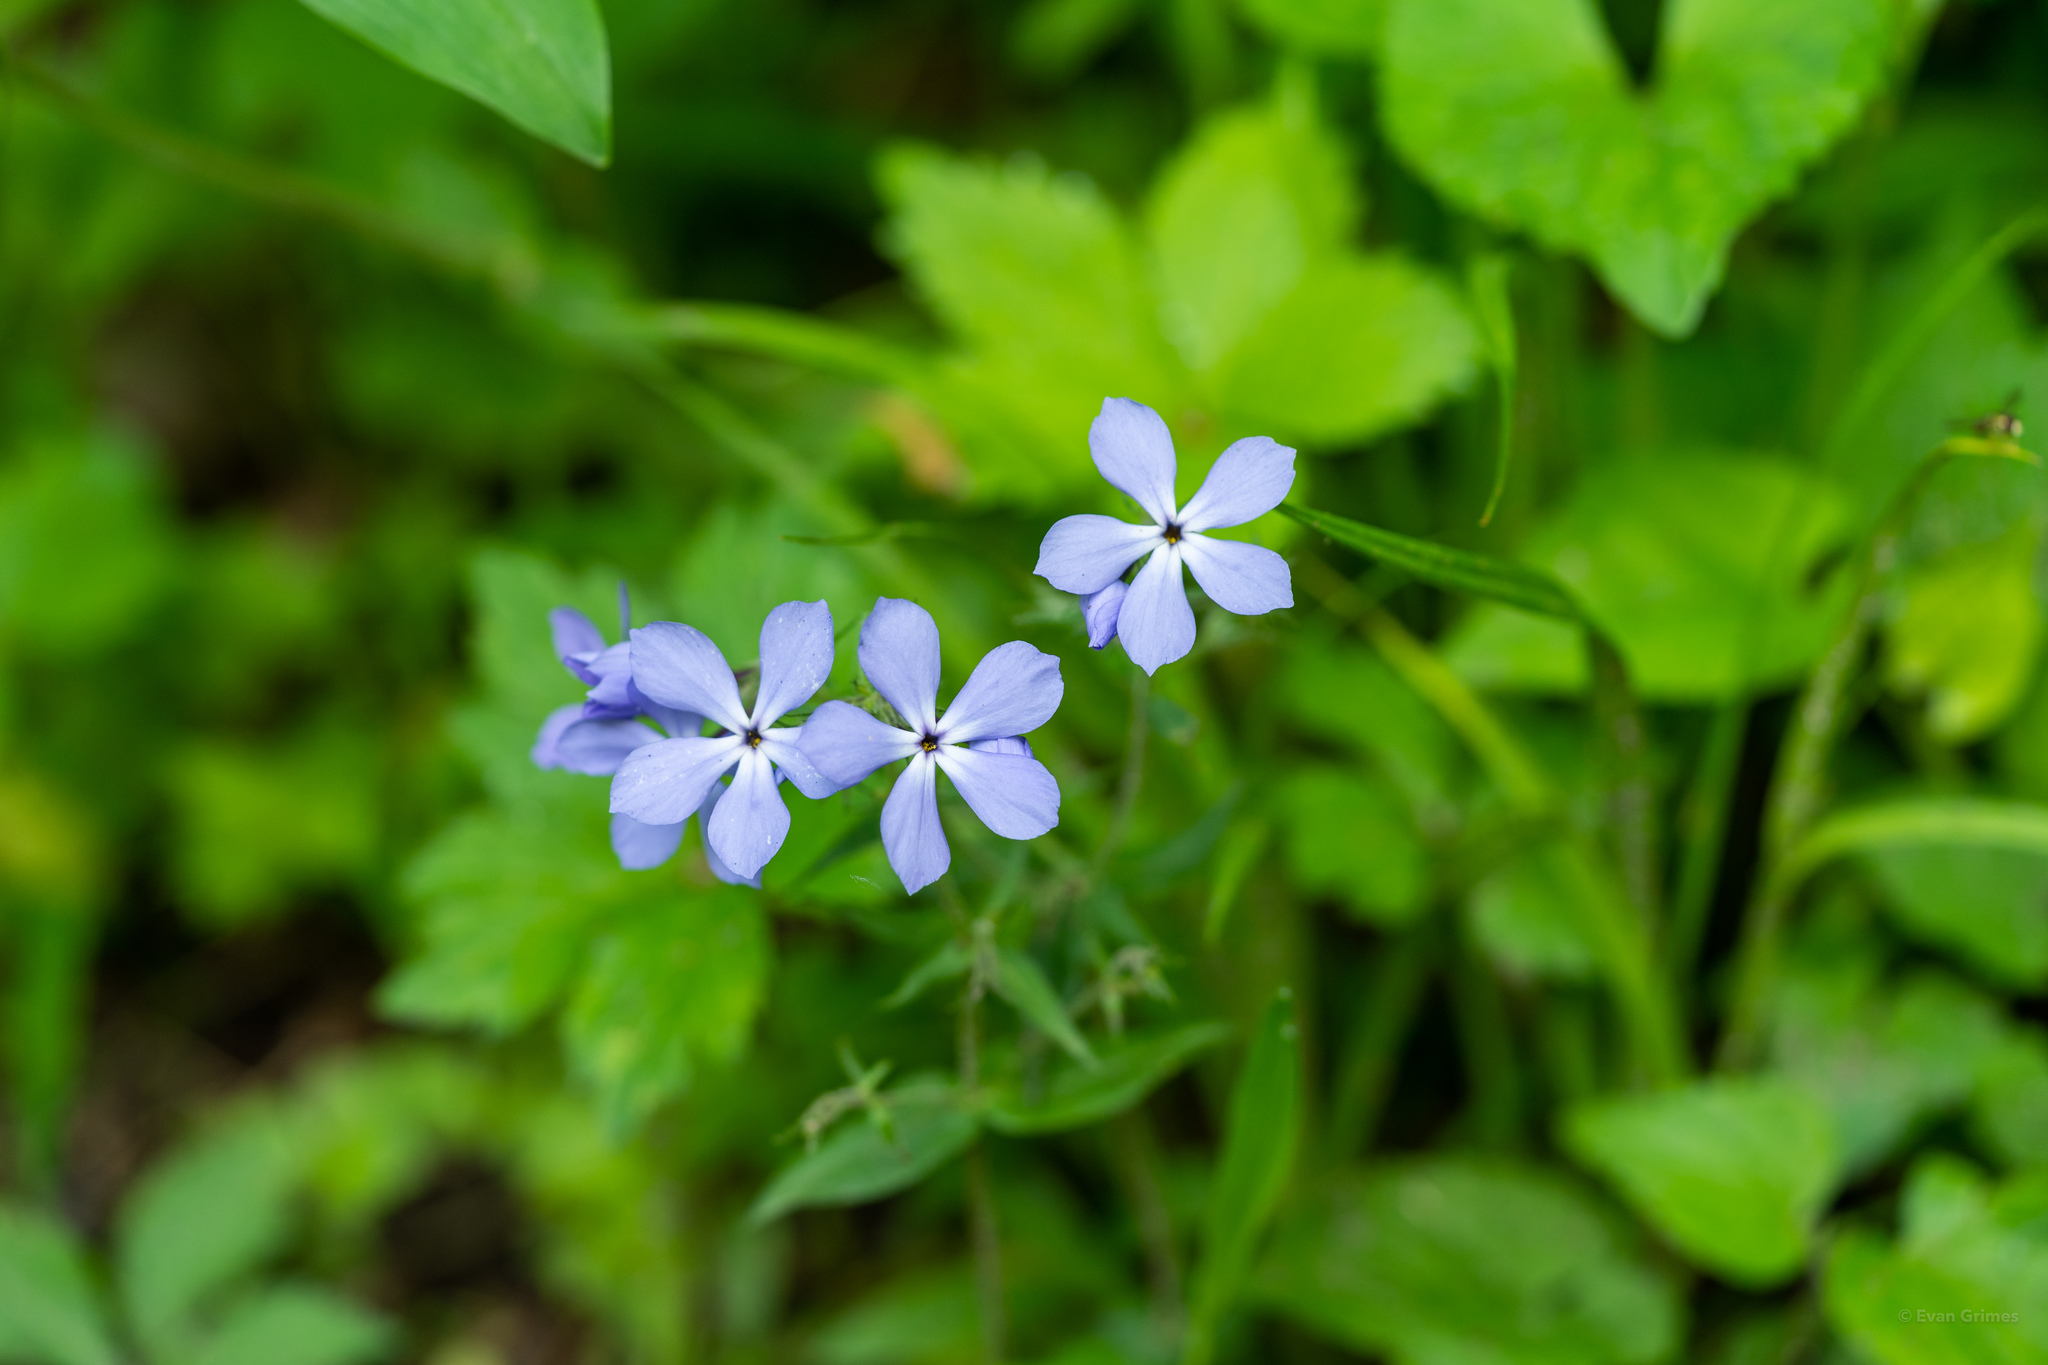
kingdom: Plantae
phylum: Tracheophyta
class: Magnoliopsida
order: Ericales
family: Polemoniaceae
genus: Phlox
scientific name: Phlox divaricata
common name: Blue phlox
